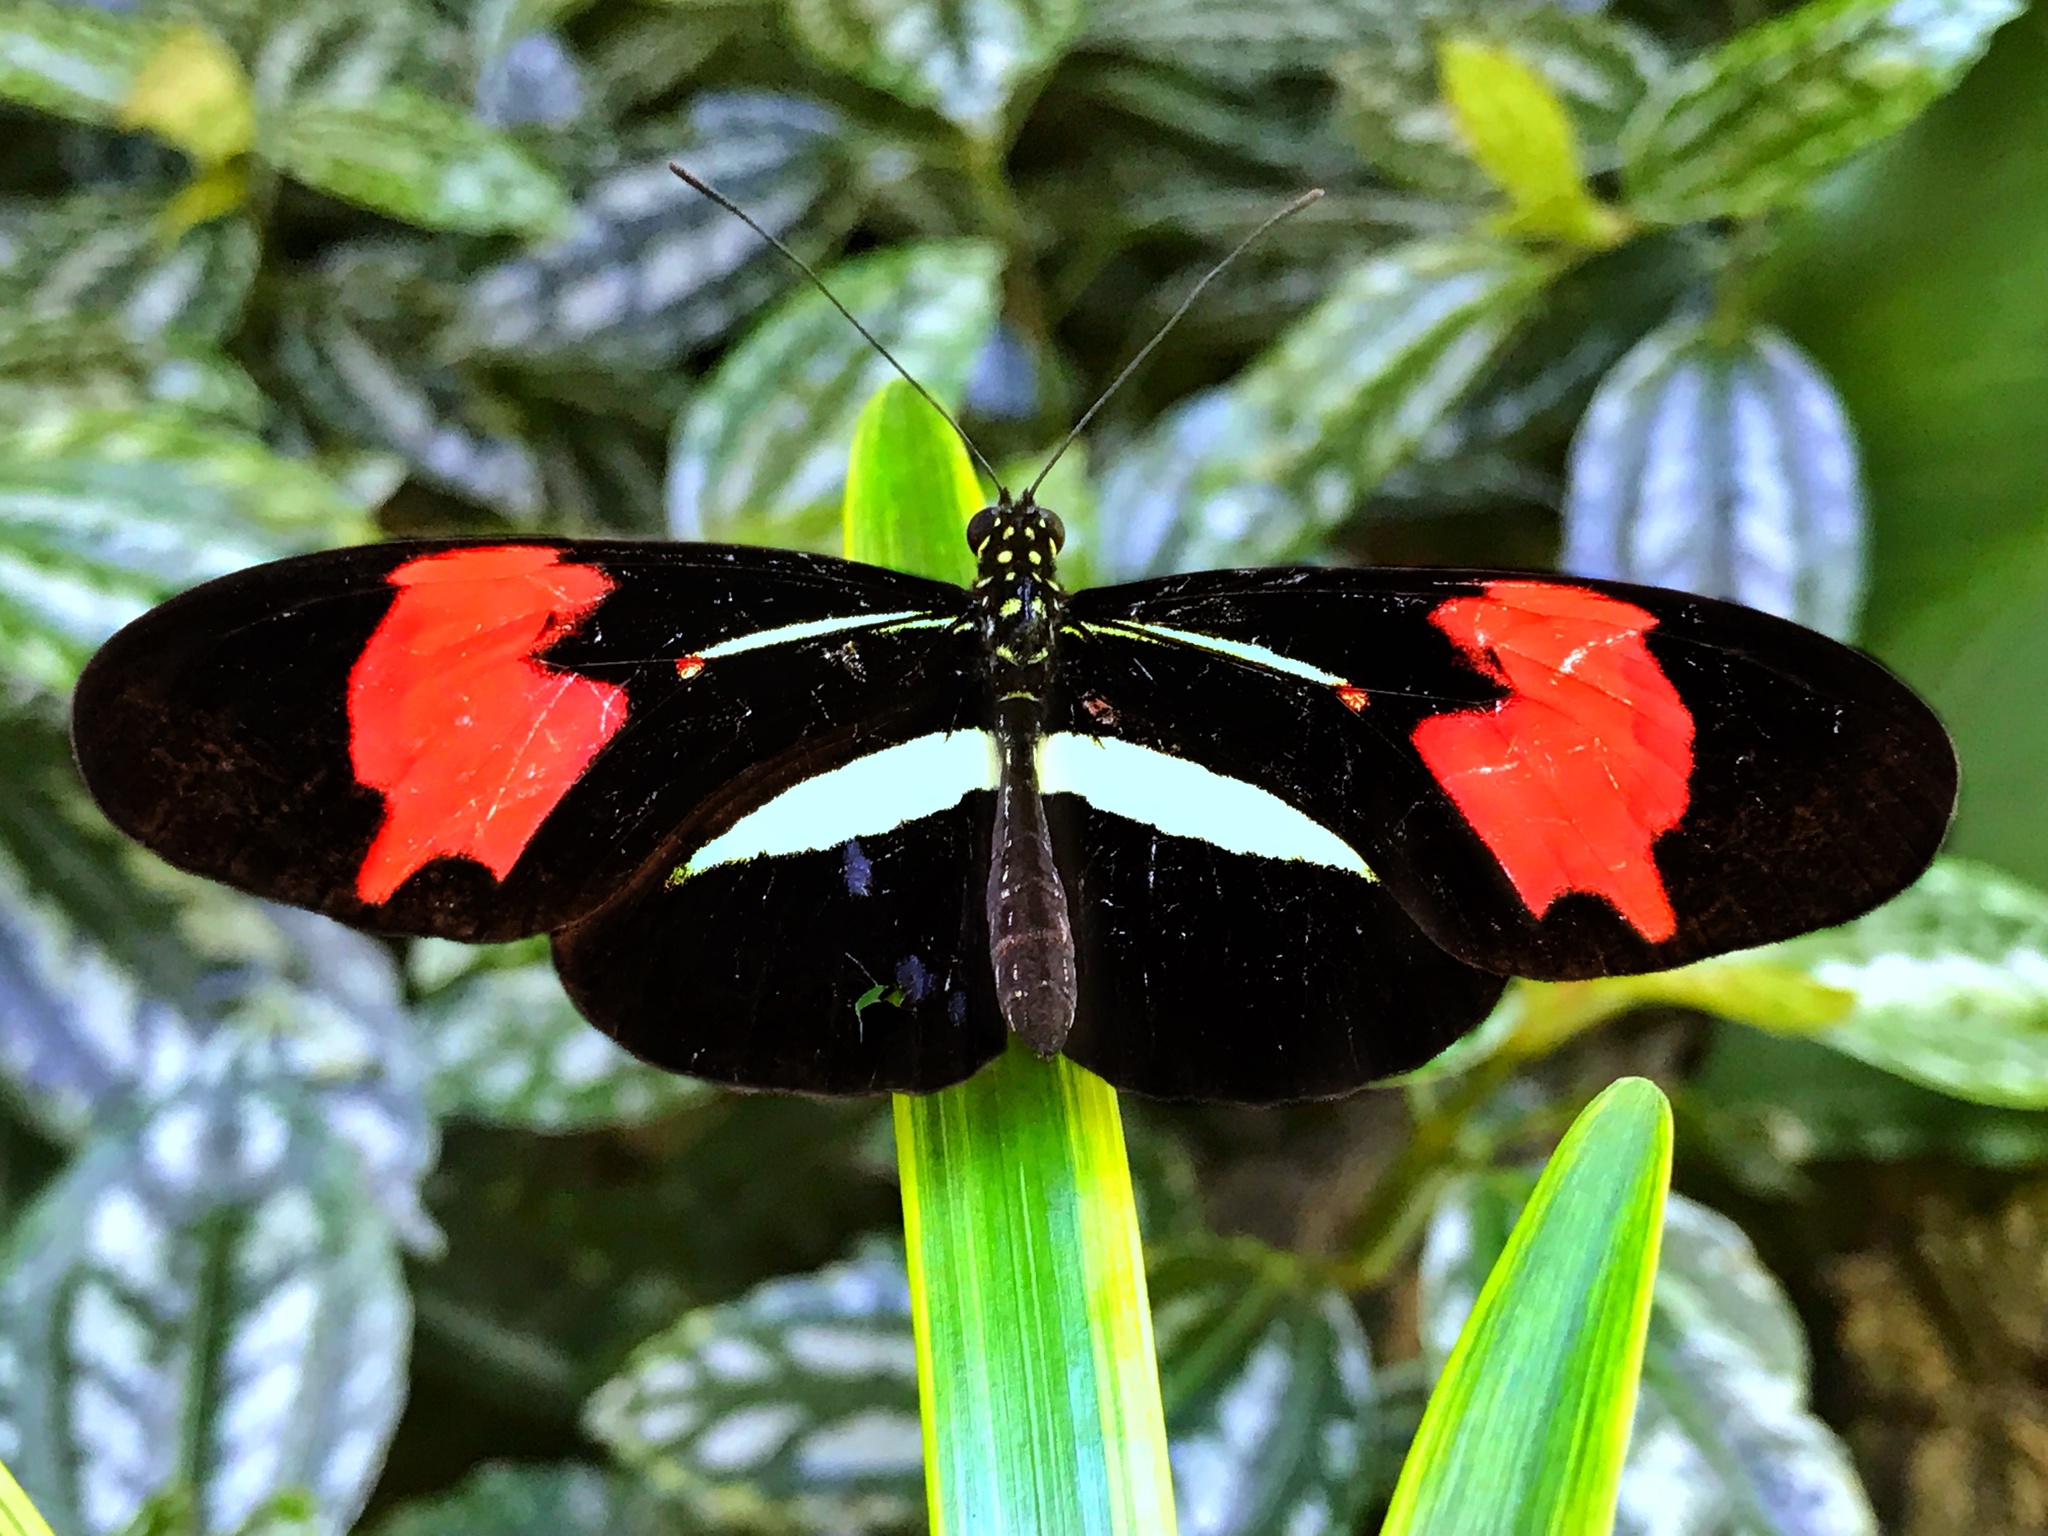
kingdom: Animalia
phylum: Arthropoda
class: Insecta
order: Lepidoptera
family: Nymphalidae
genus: Heliconius
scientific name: Heliconius erato
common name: Common patch longwing
